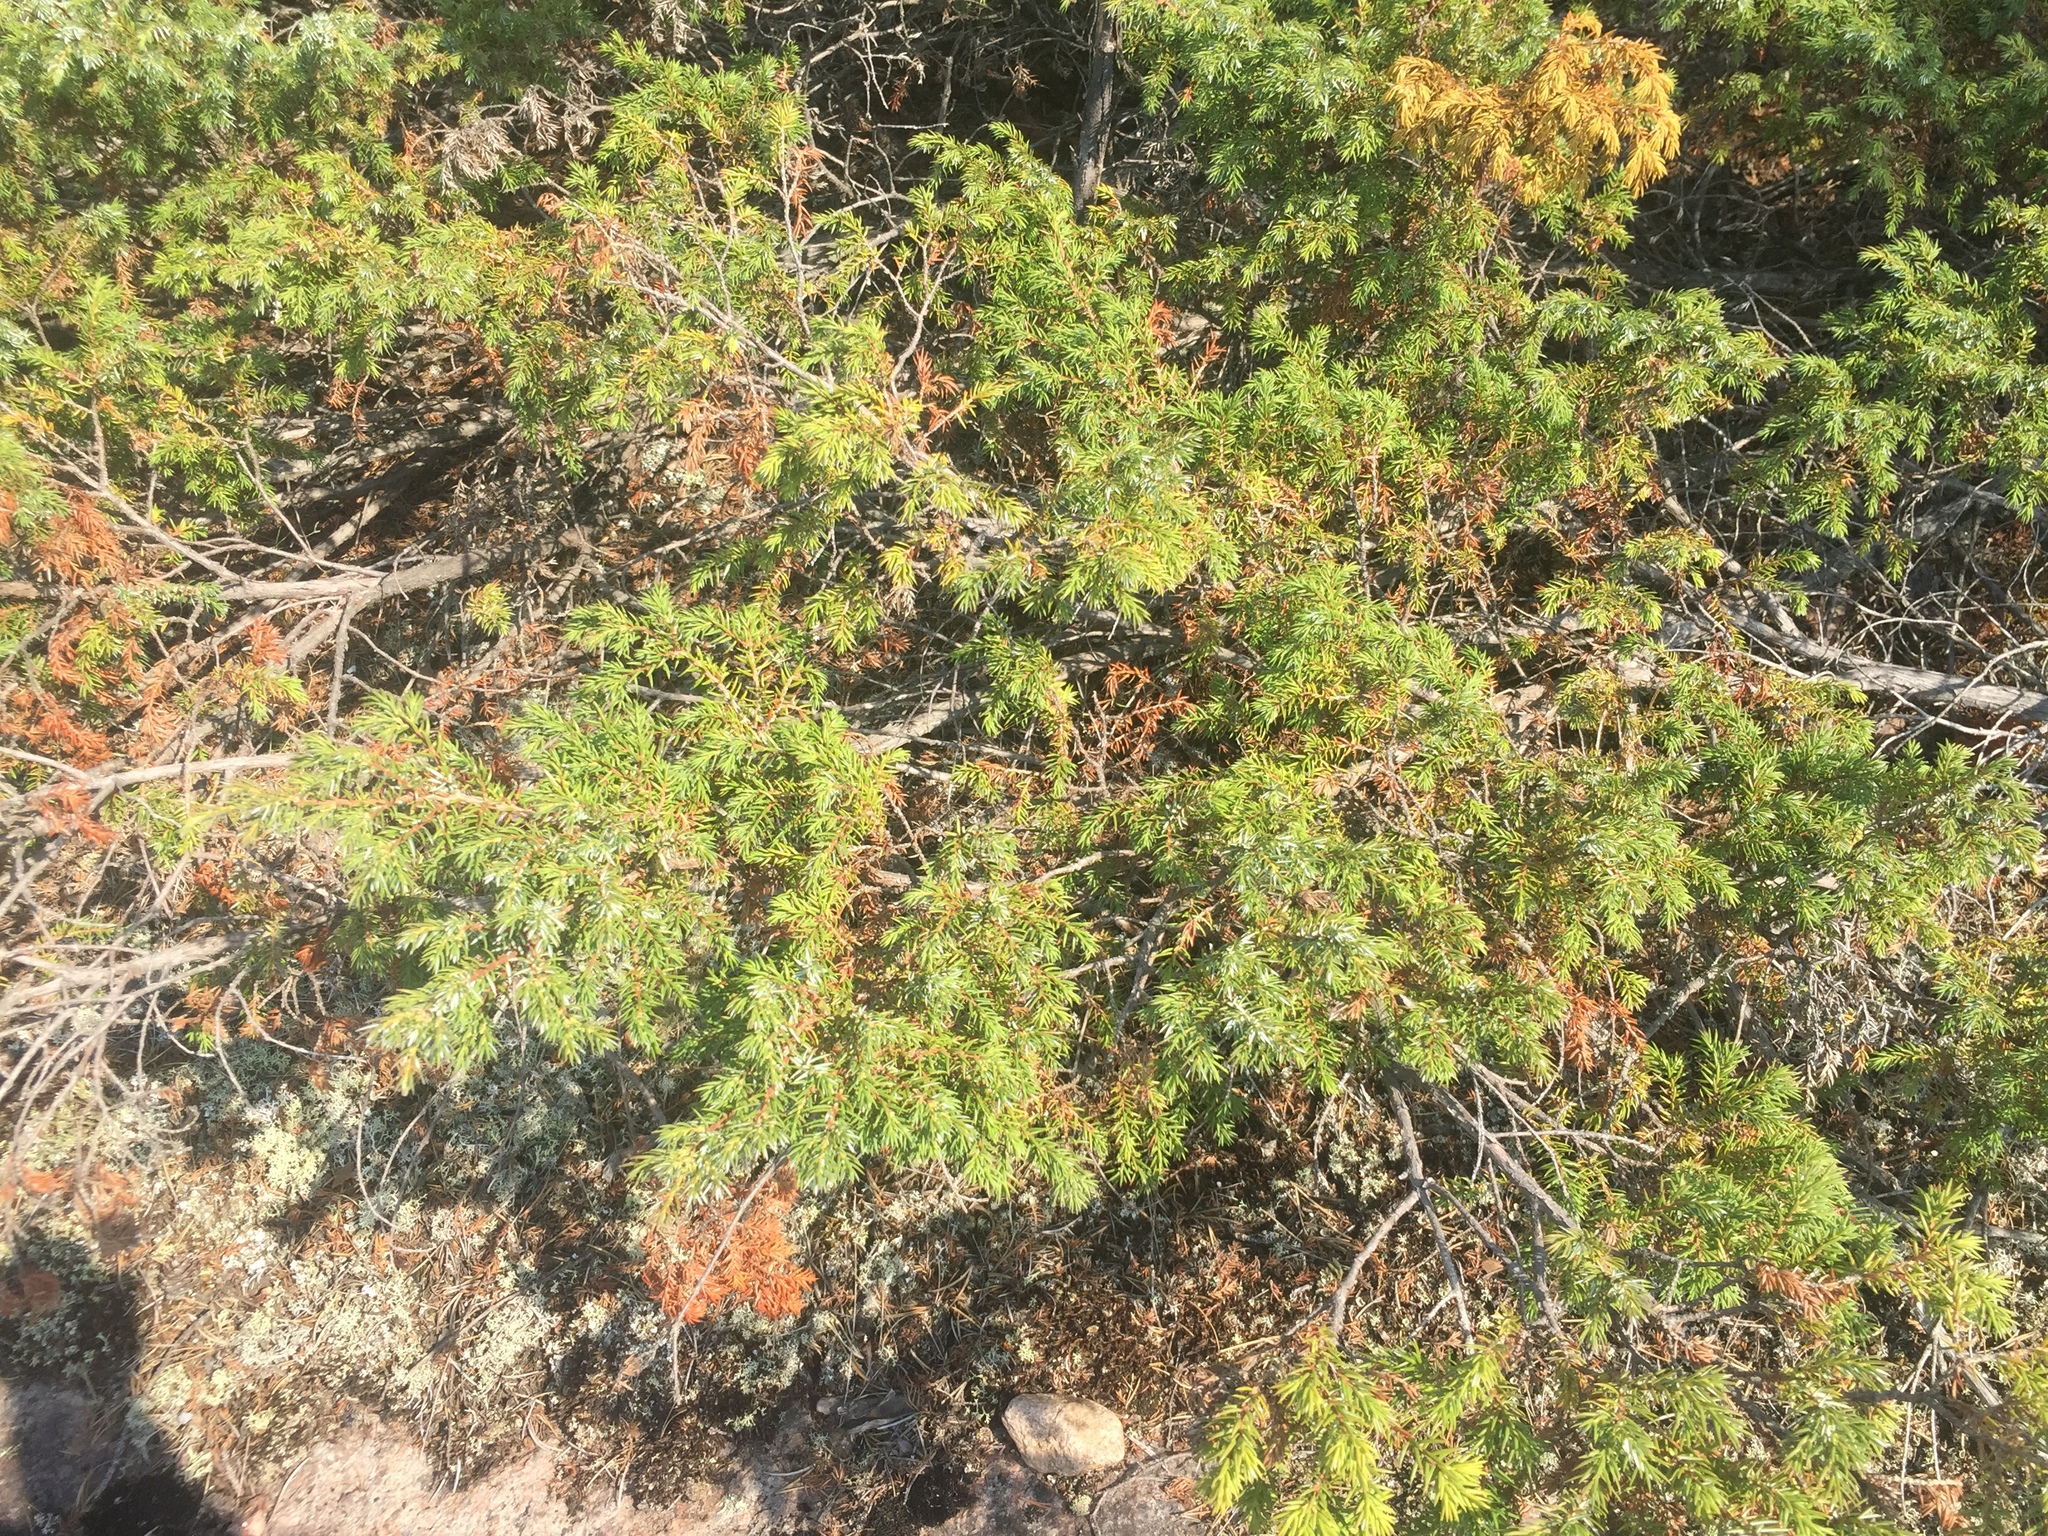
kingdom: Plantae
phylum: Tracheophyta
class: Pinopsida
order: Pinales
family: Cupressaceae
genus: Juniperus
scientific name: Juniperus communis
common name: Common juniper
